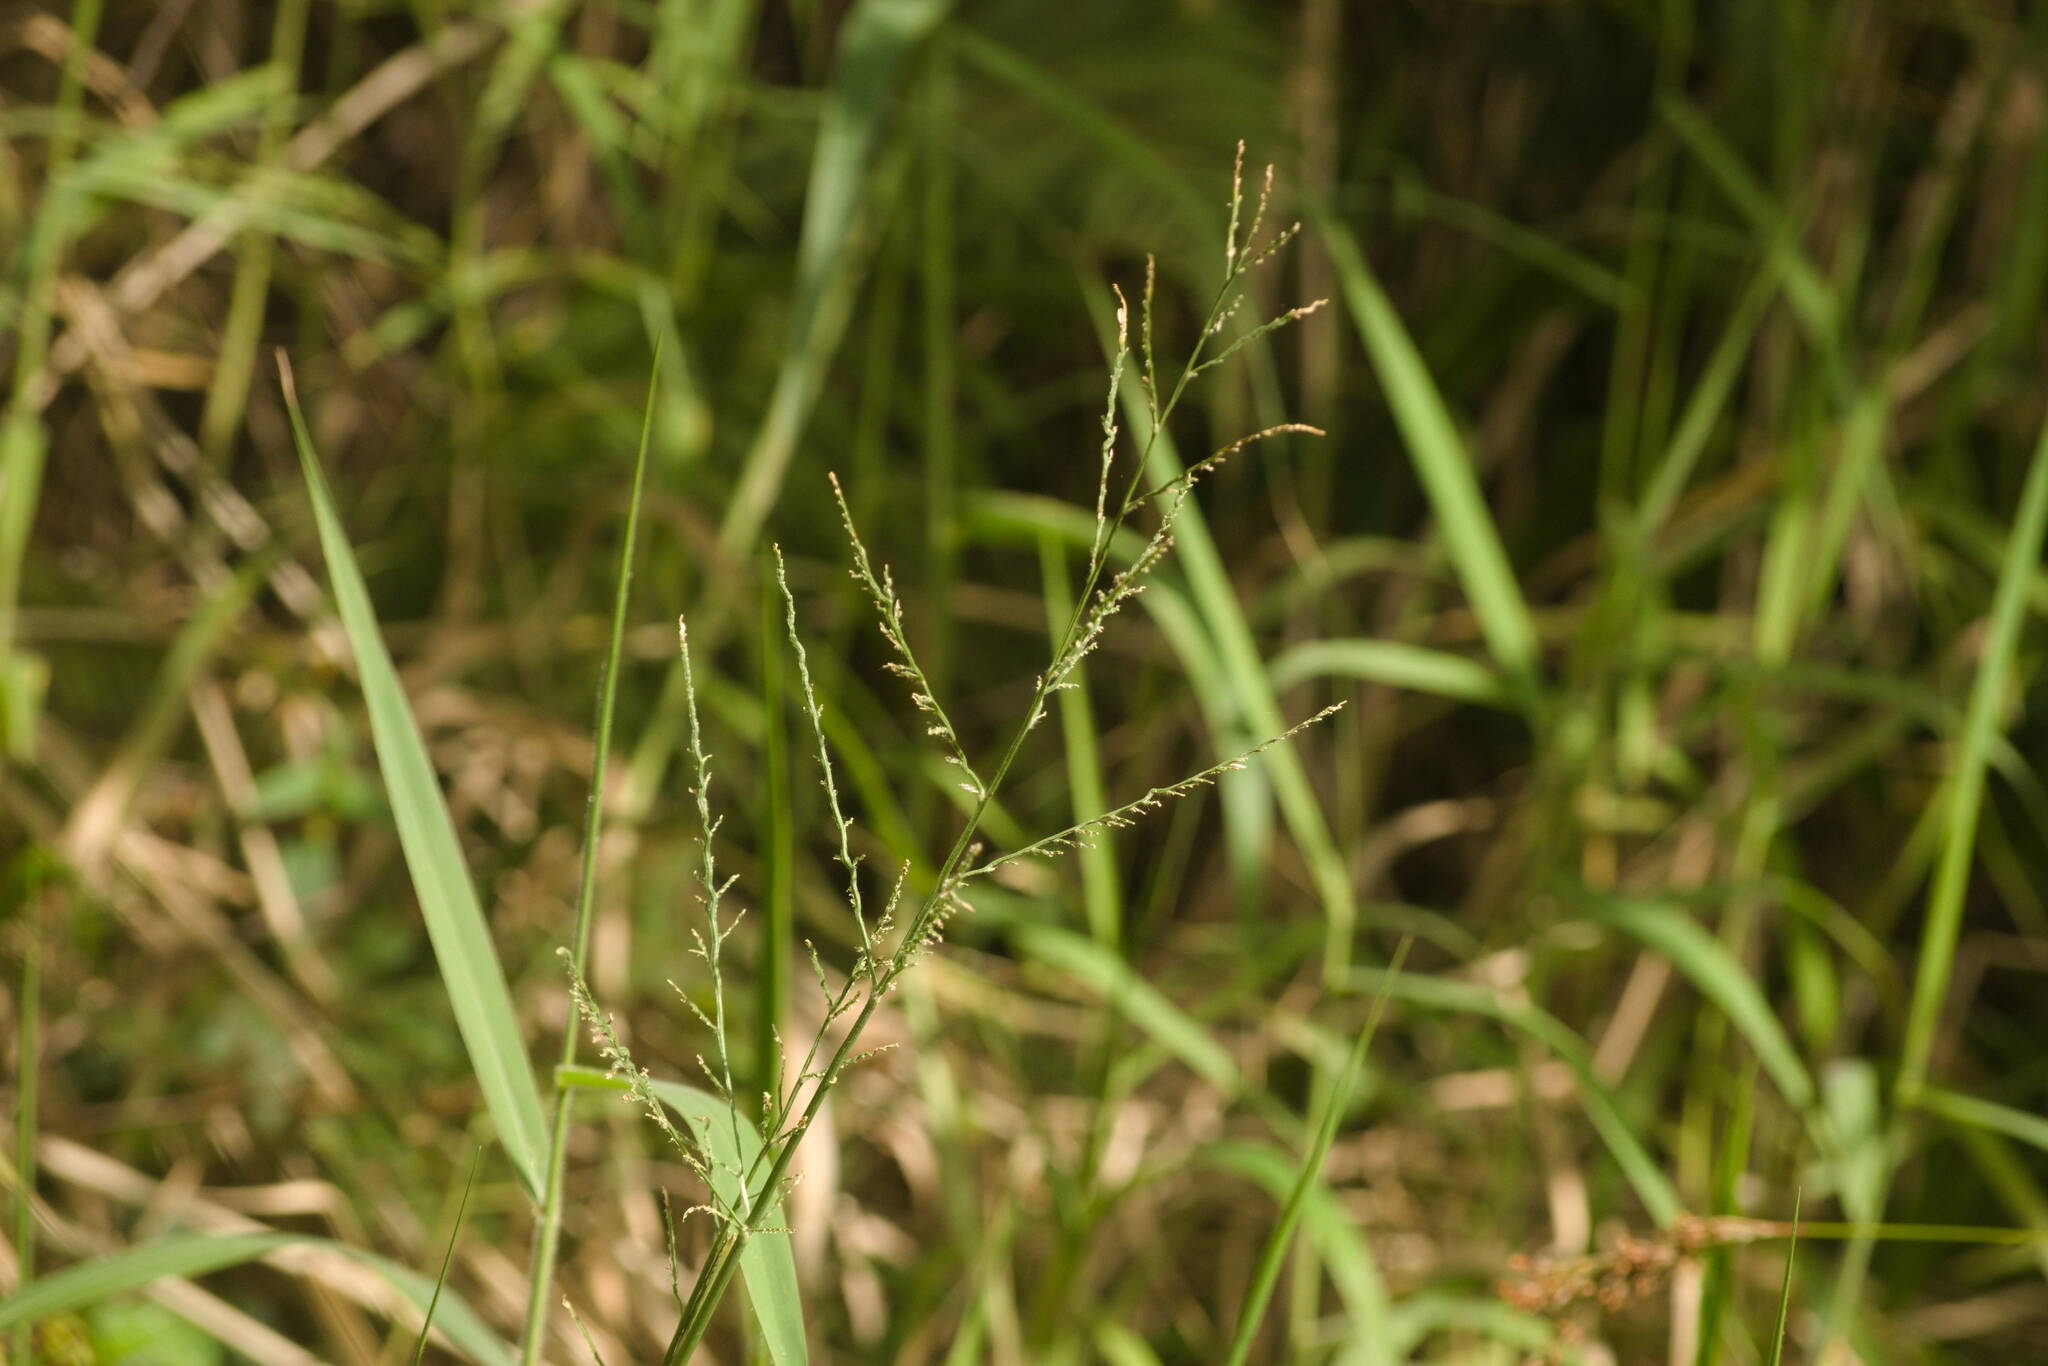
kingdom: Plantae
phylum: Tracheophyta
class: Liliopsida
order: Poales
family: Poaceae
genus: Urochloa
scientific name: Urochloa mutica
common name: Para grass
